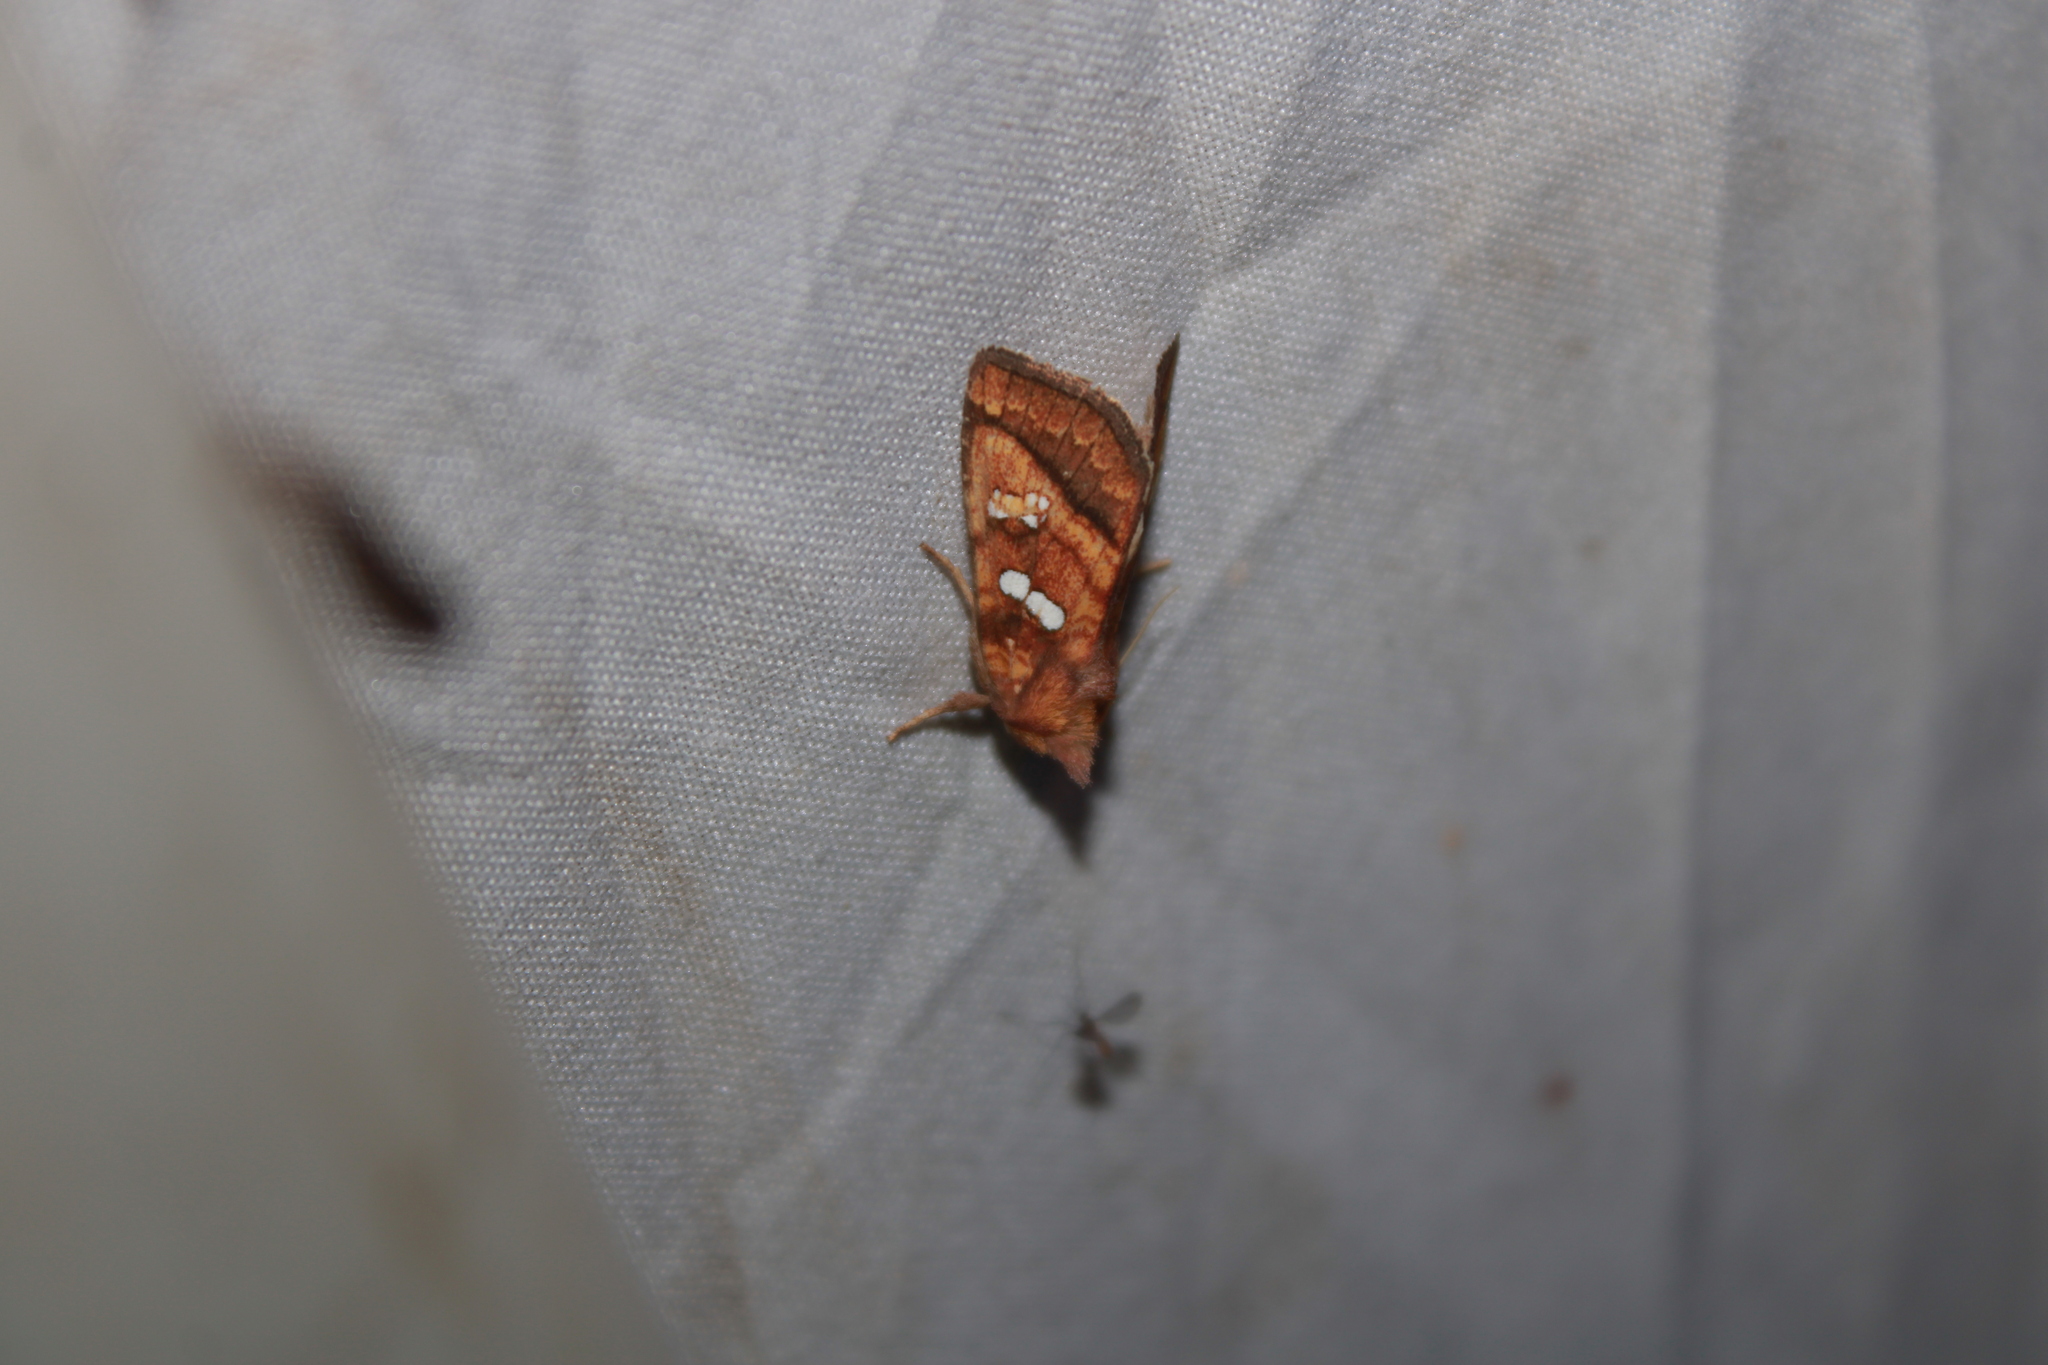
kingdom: Animalia
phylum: Arthropoda
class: Insecta
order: Lepidoptera
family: Noctuidae
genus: Papaipema
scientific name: Papaipema pterisii
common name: Bracken borer moth
